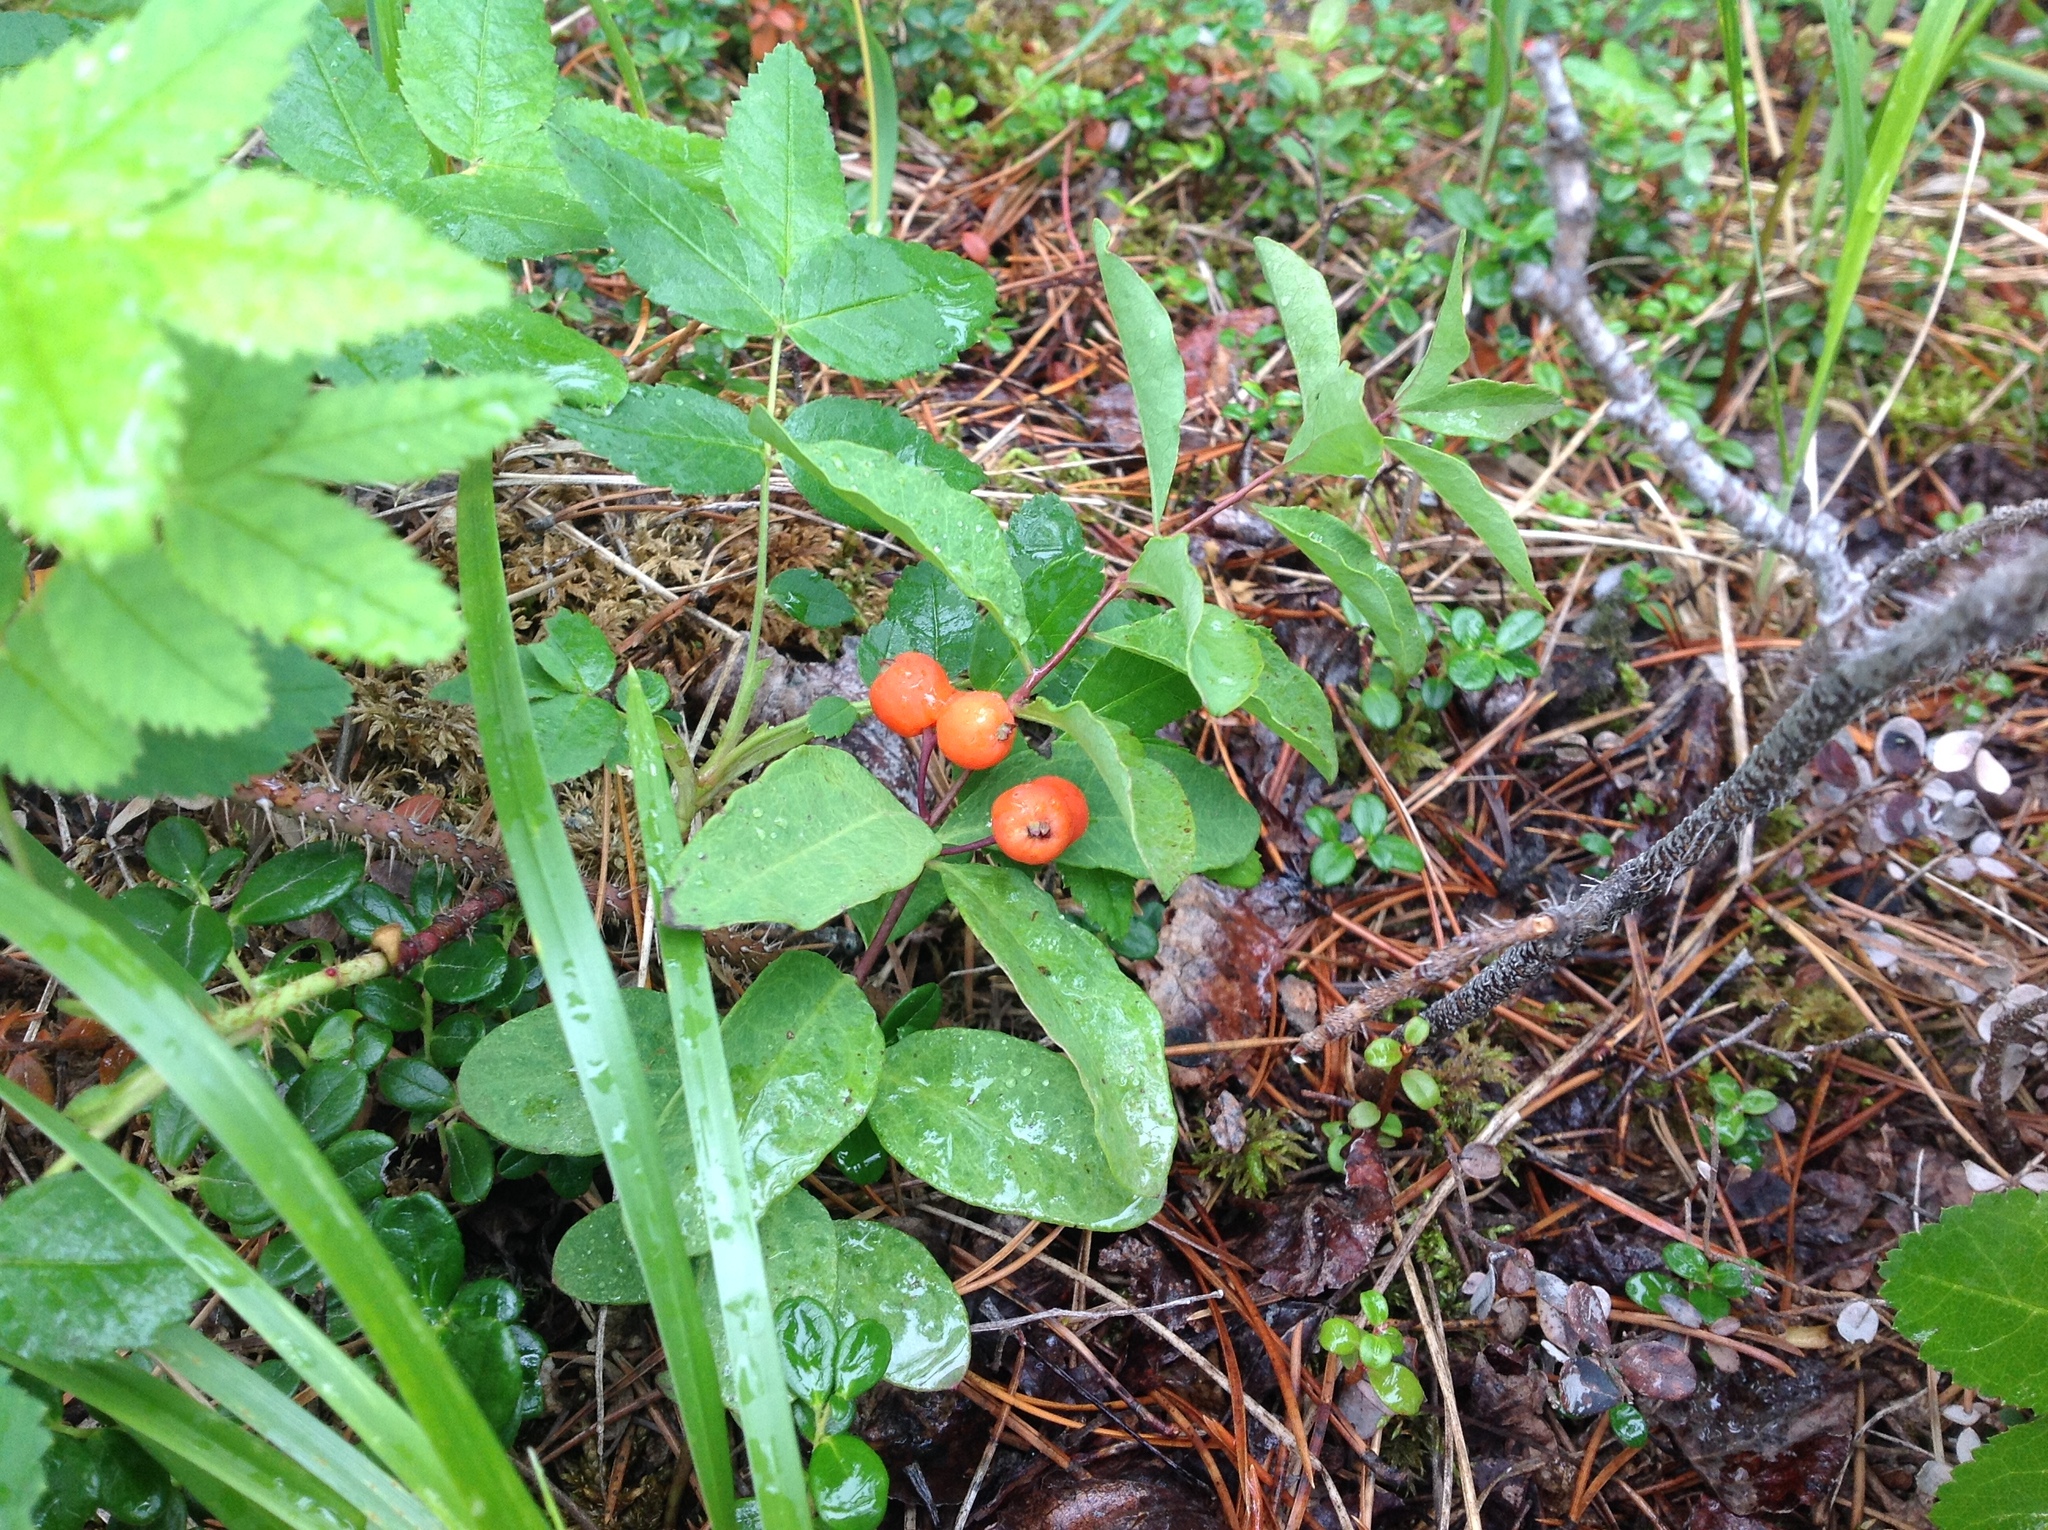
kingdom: Plantae
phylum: Tracheophyta
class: Magnoliopsida
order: Santalales
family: Comandraceae
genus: Geocaulon
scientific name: Geocaulon lividum
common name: Earthberry
